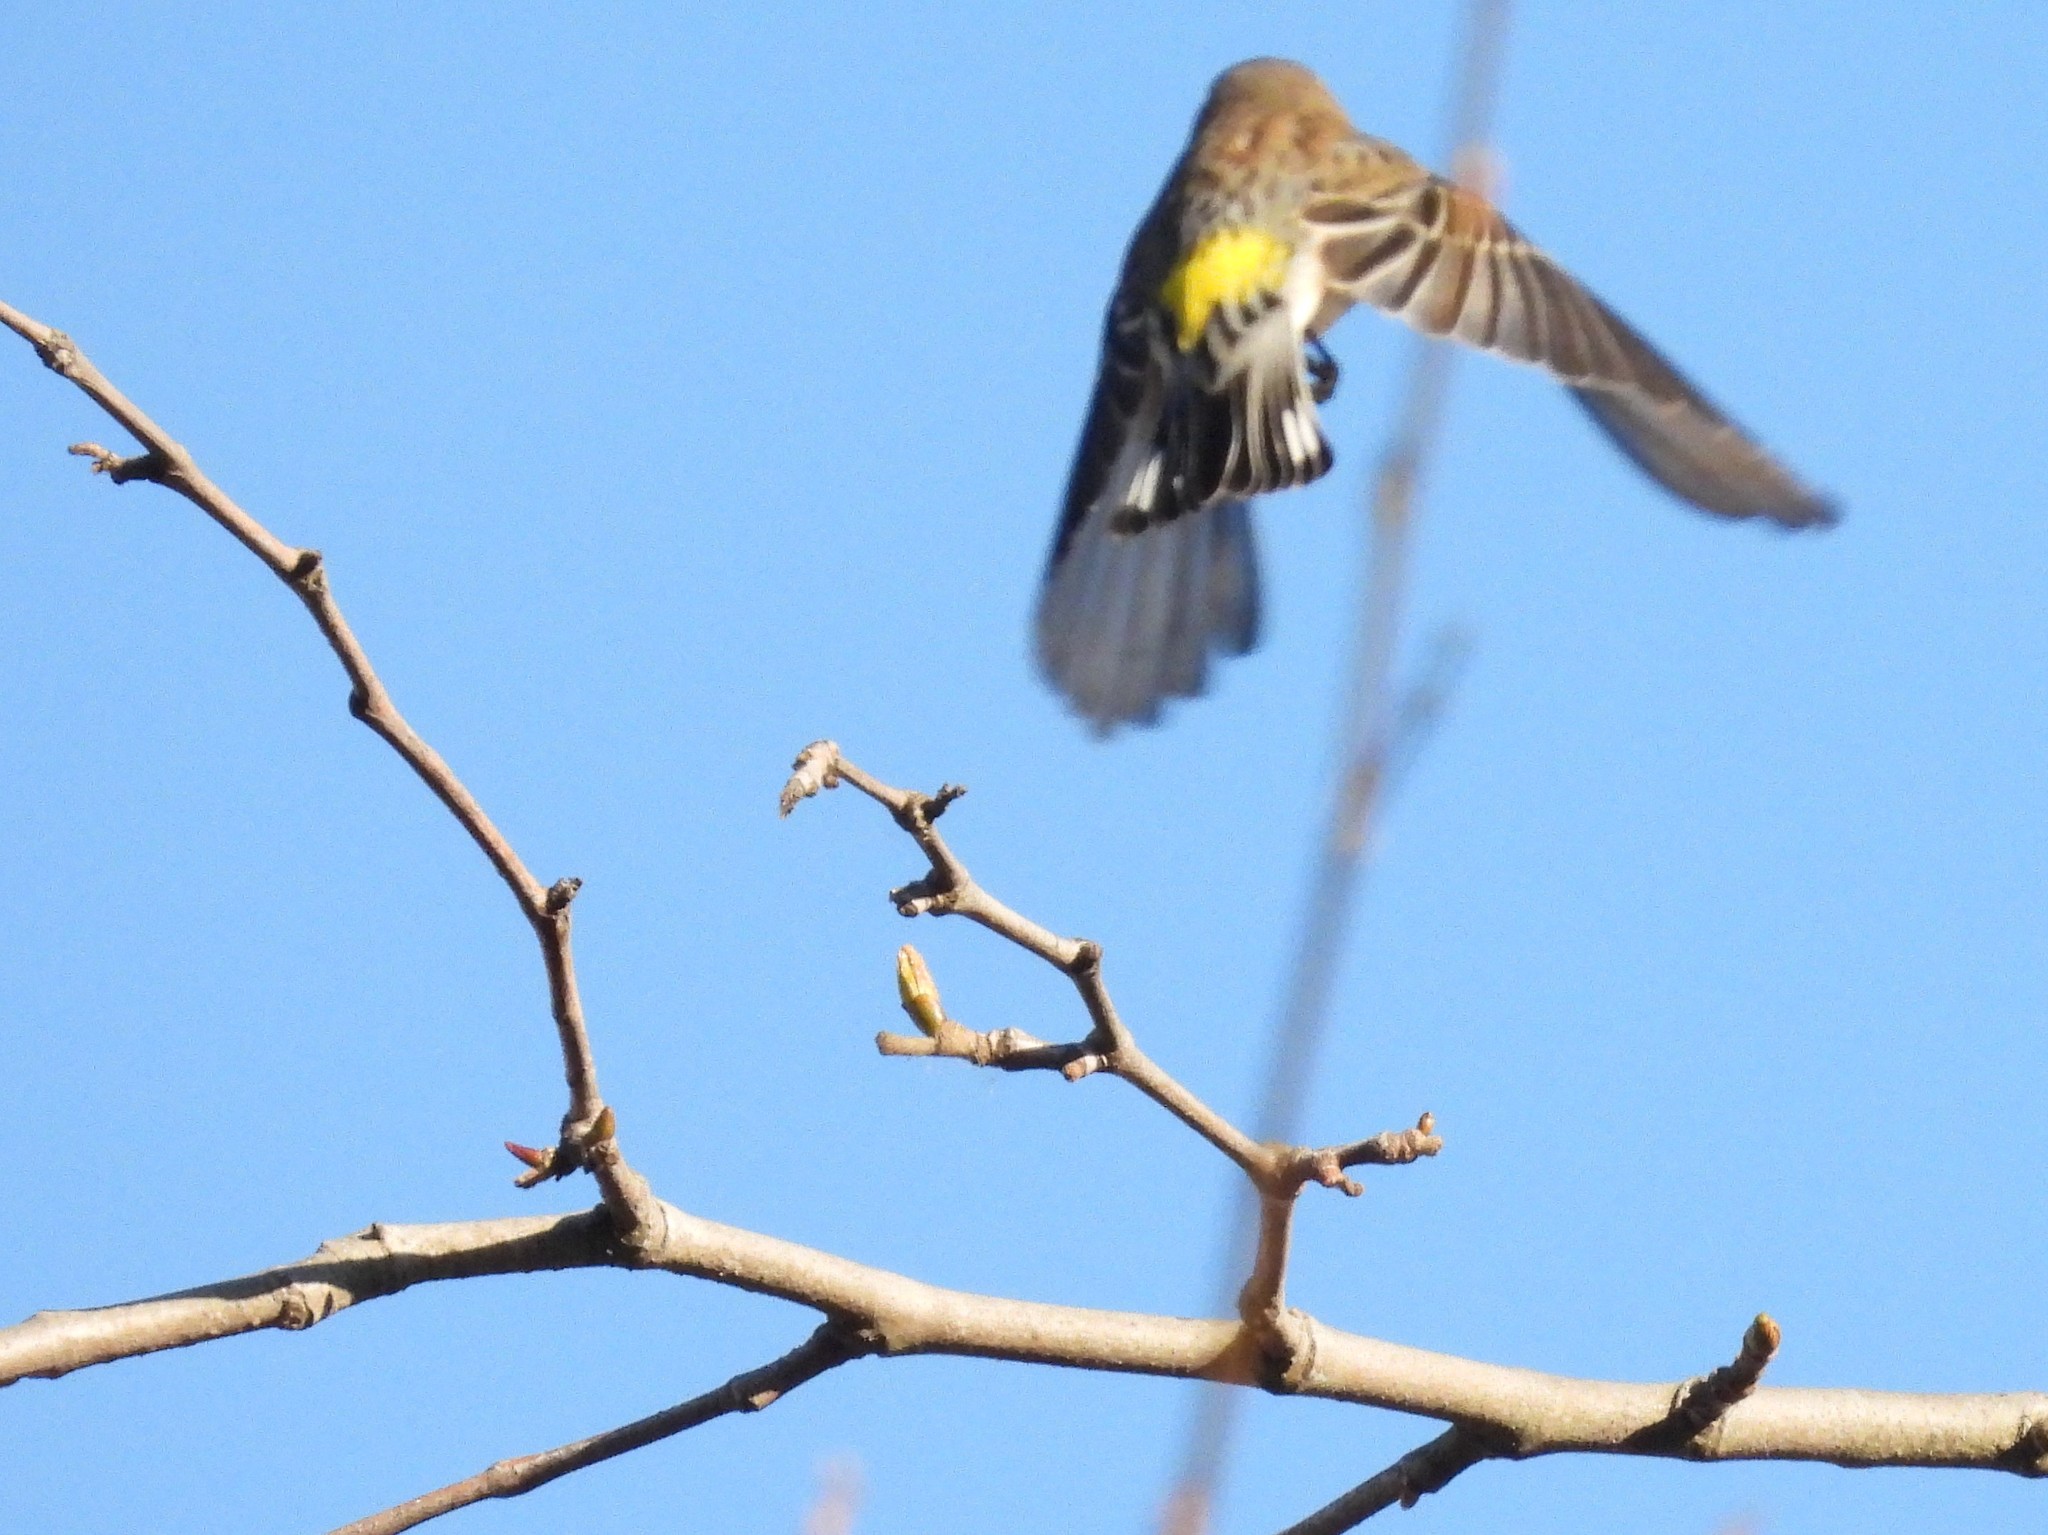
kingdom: Animalia
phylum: Chordata
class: Aves
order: Passeriformes
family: Parulidae
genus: Setophaga
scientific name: Setophaga coronata
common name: Myrtle warbler
